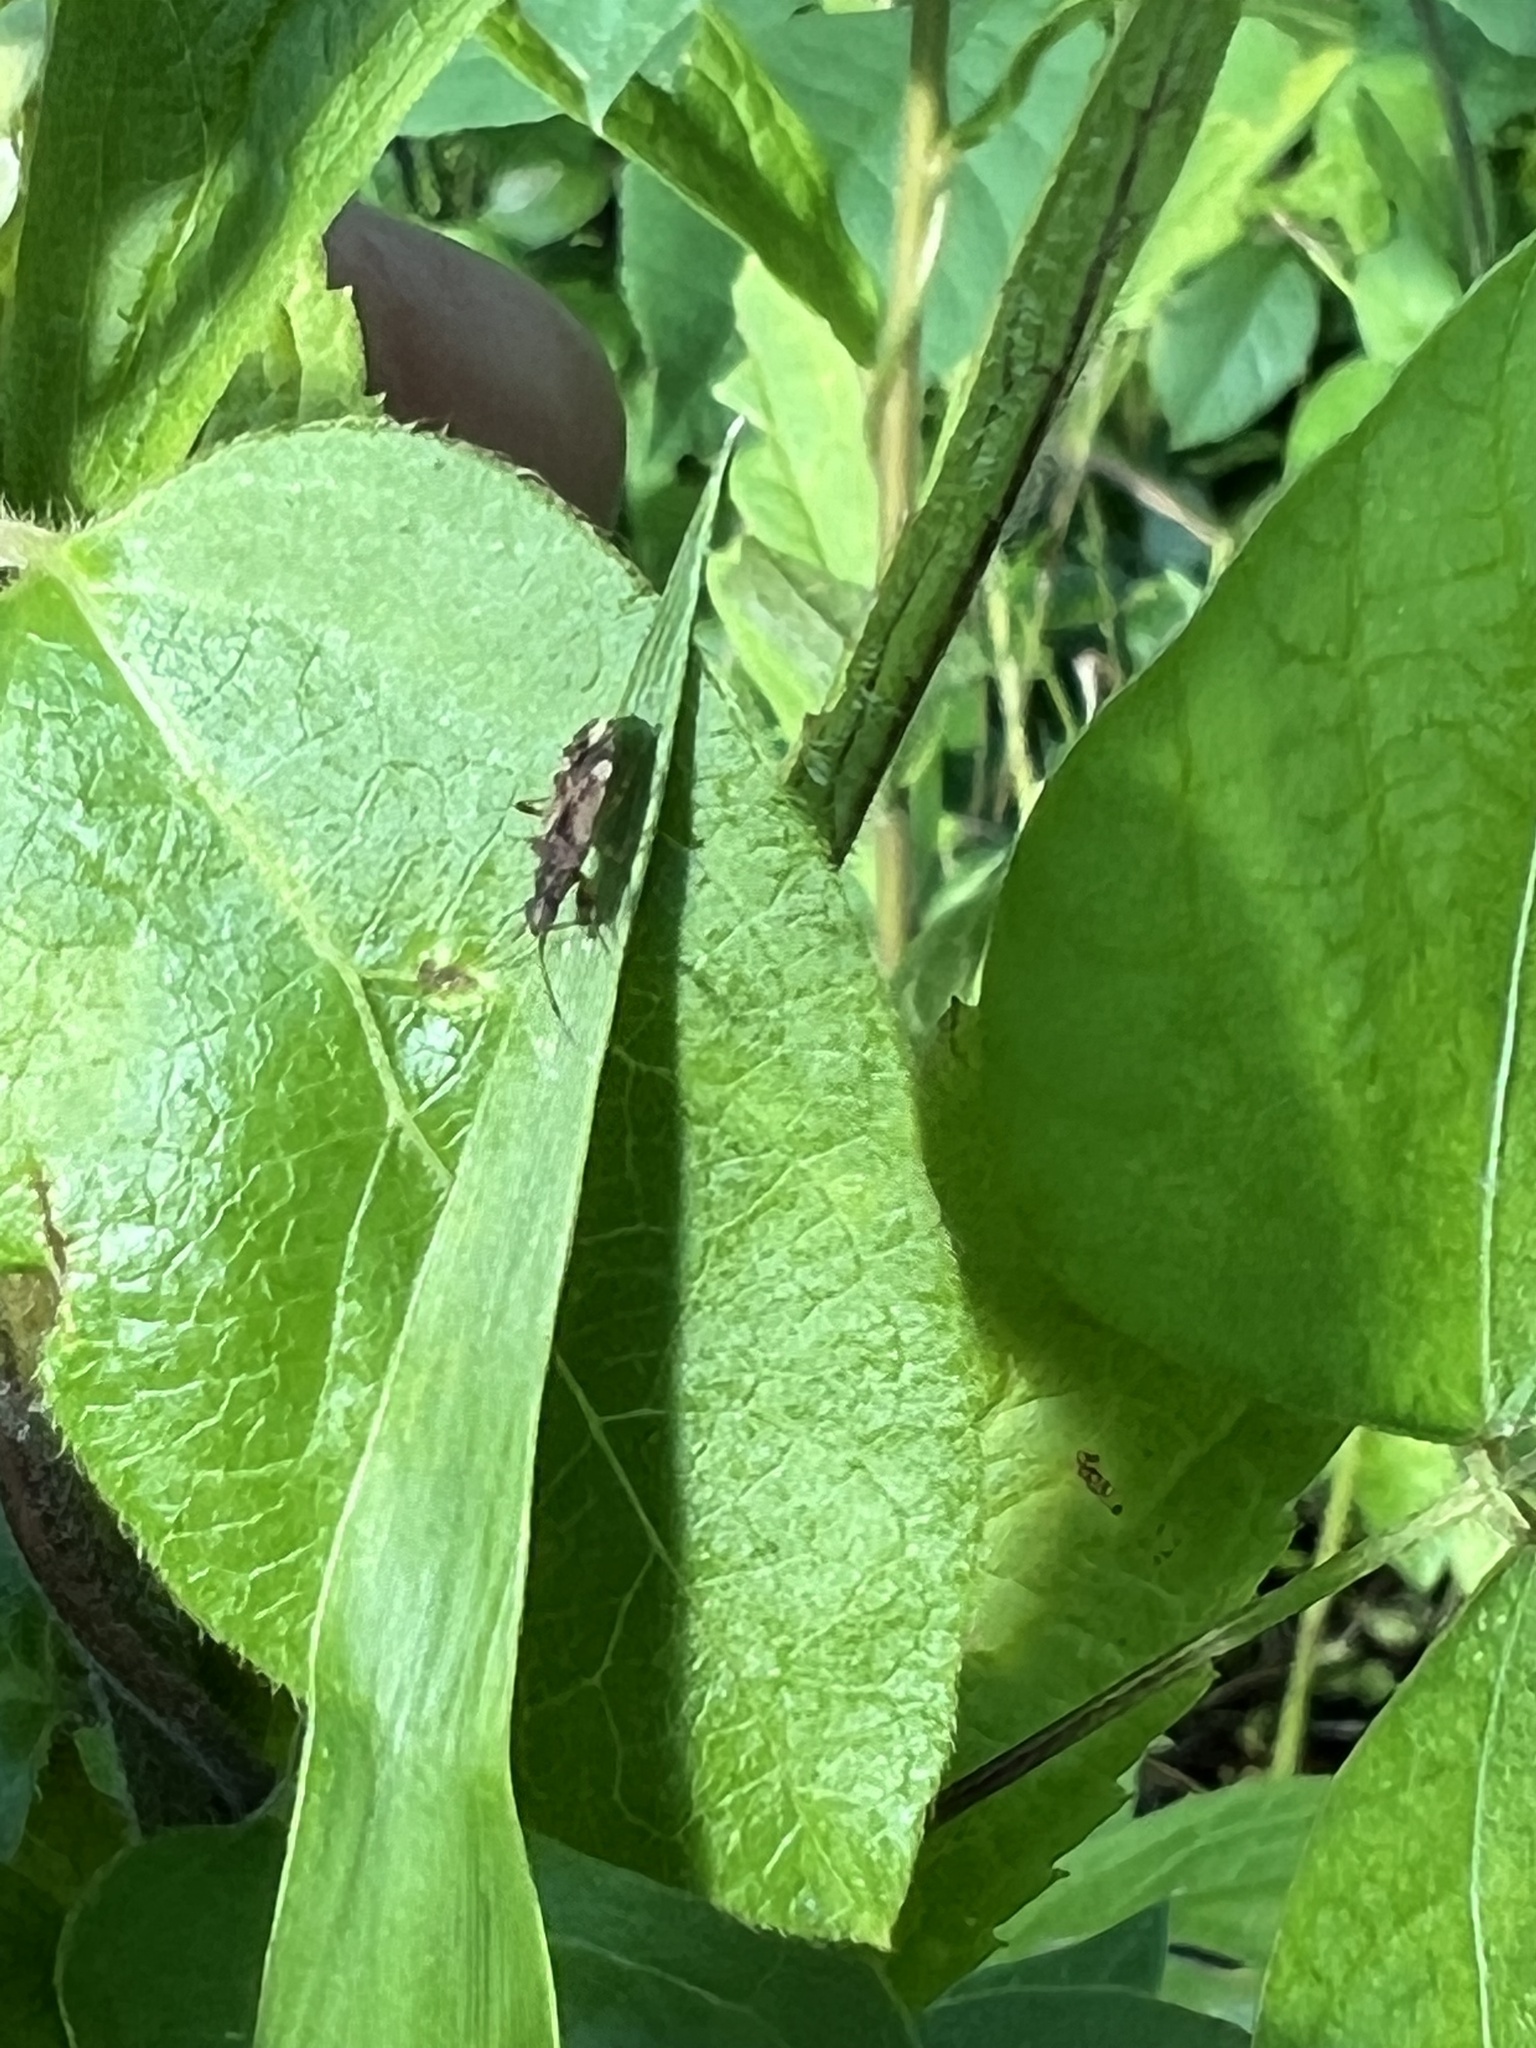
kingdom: Animalia
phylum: Arthropoda
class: Insecta
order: Hemiptera
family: Rhyparochromidae
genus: Neopamera
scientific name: Neopamera albocincta
